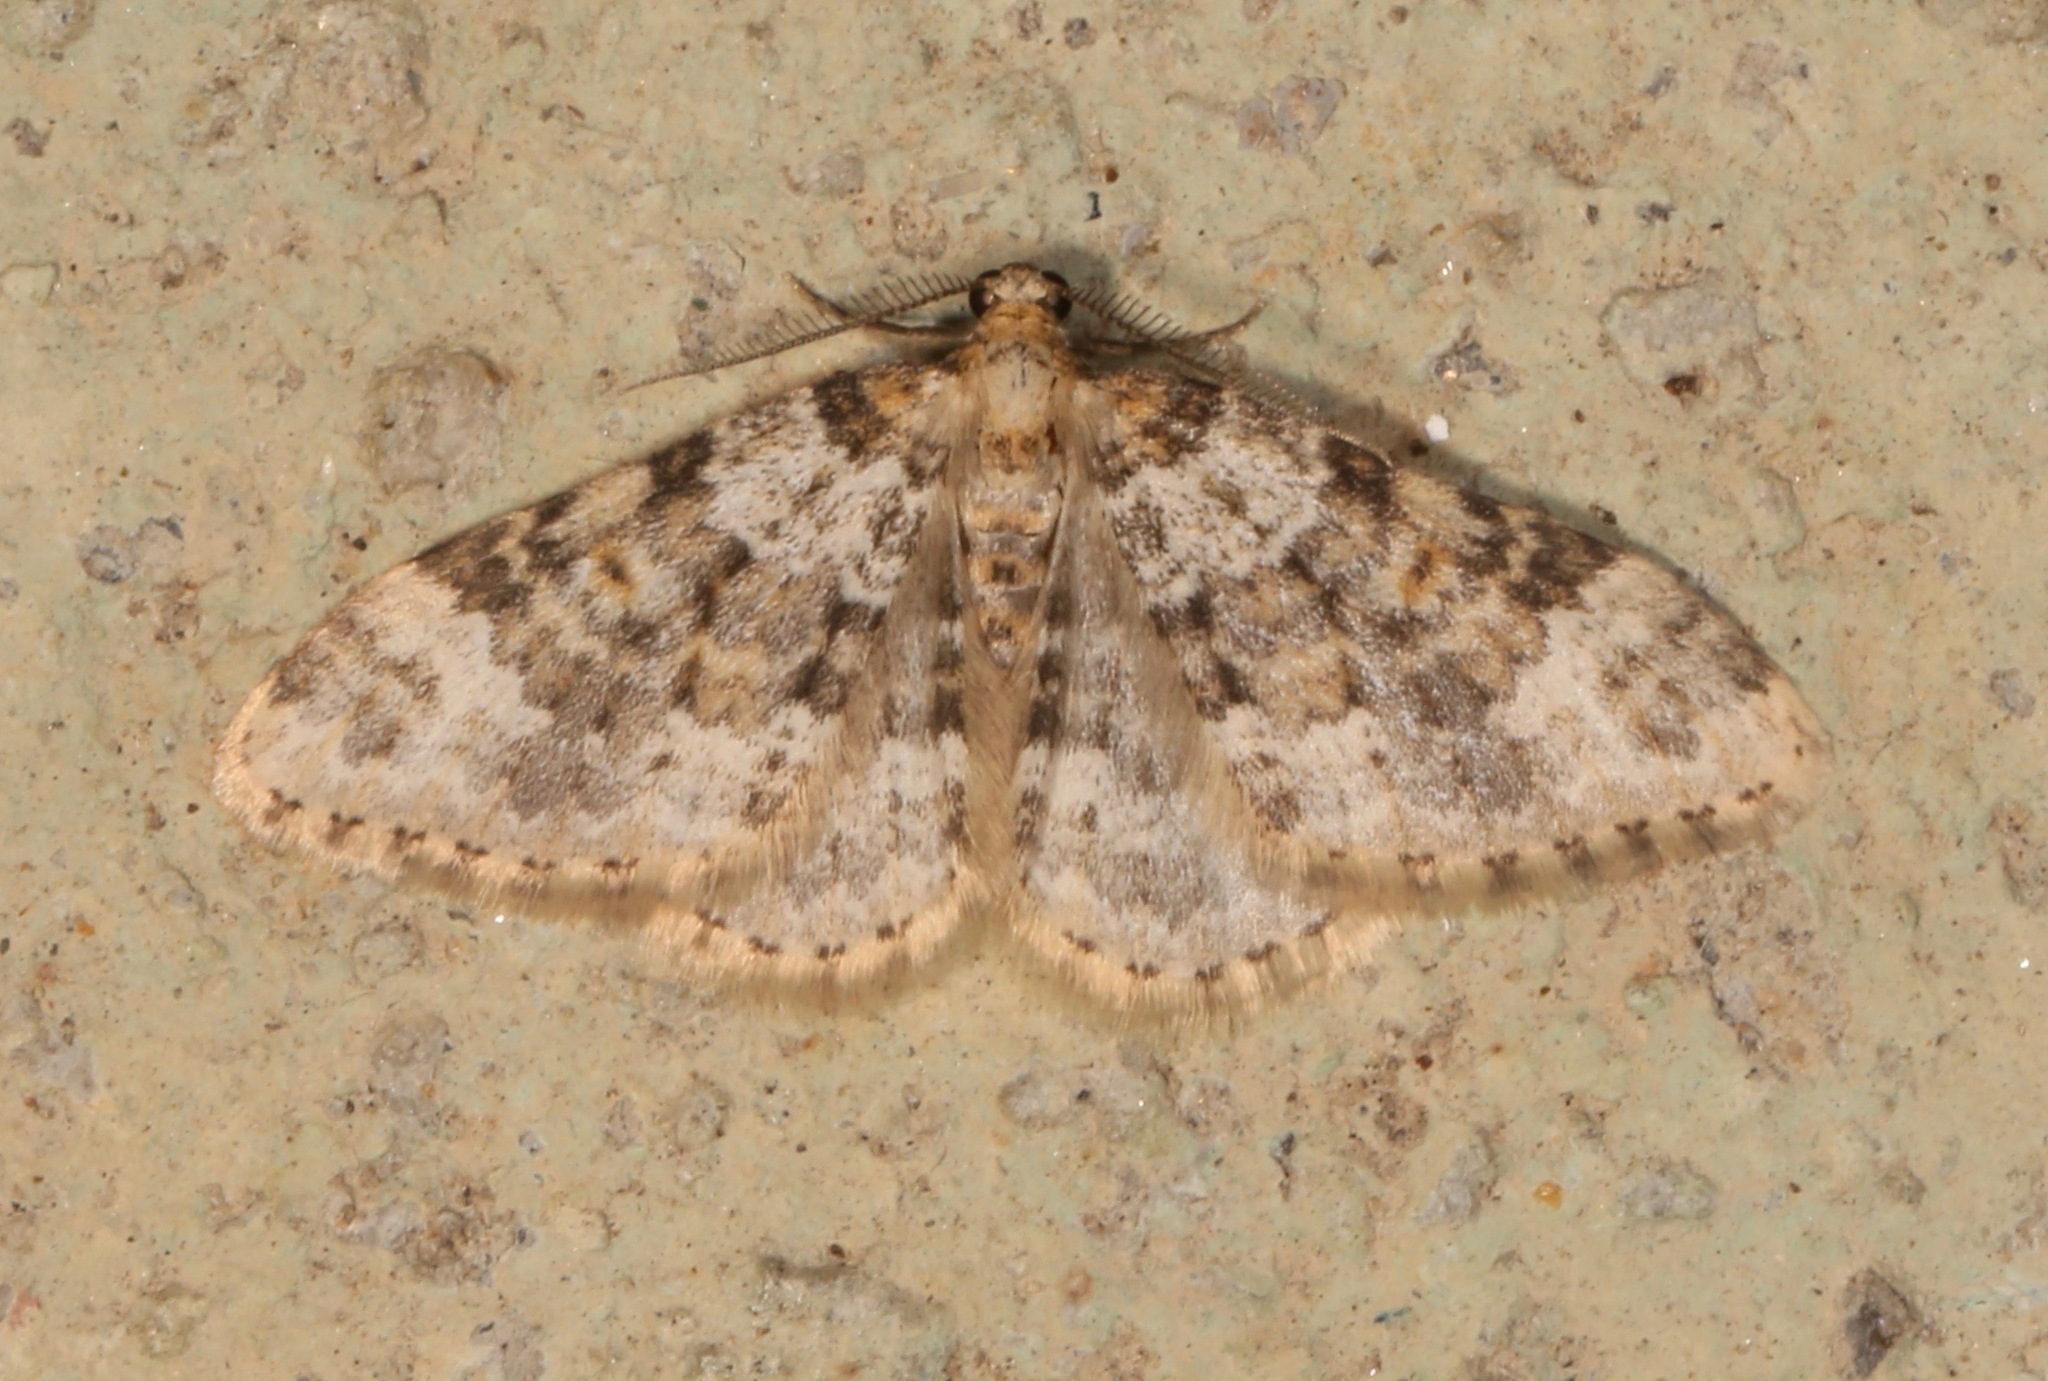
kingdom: Animalia
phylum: Arthropoda
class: Insecta
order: Lepidoptera
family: Geometridae
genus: Zenophleps
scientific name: Zenophleps obscurata
